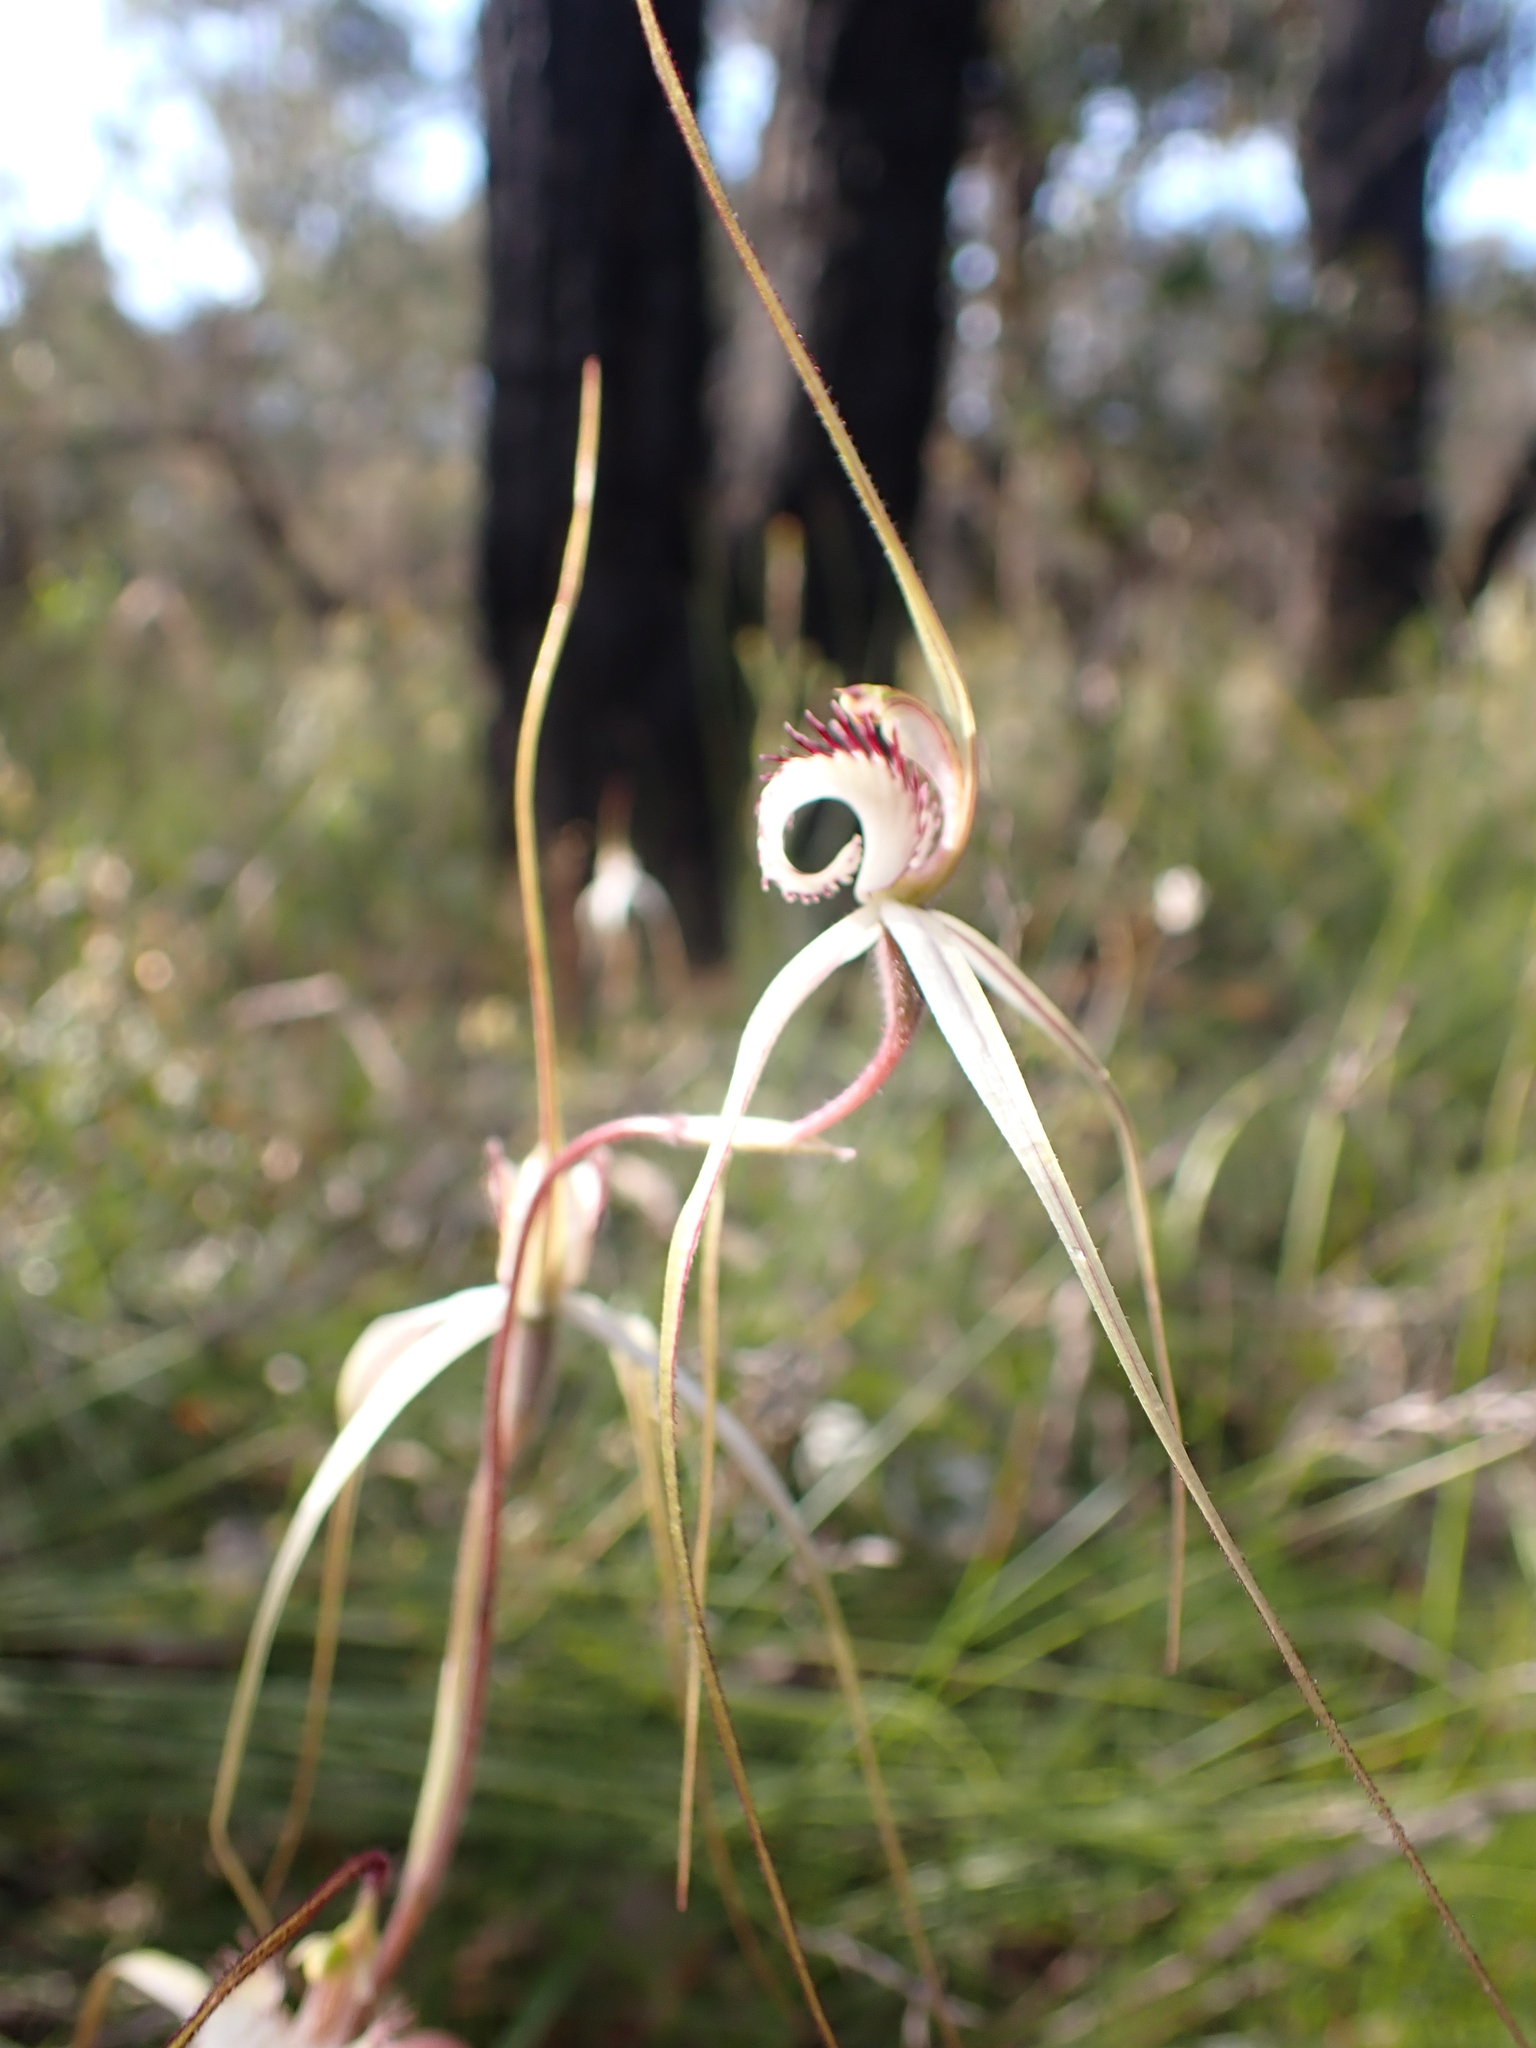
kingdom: Plantae
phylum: Tracheophyta
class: Liliopsida
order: Asparagales
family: Orchidaceae
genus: Caladenia
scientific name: Caladenia venusta
